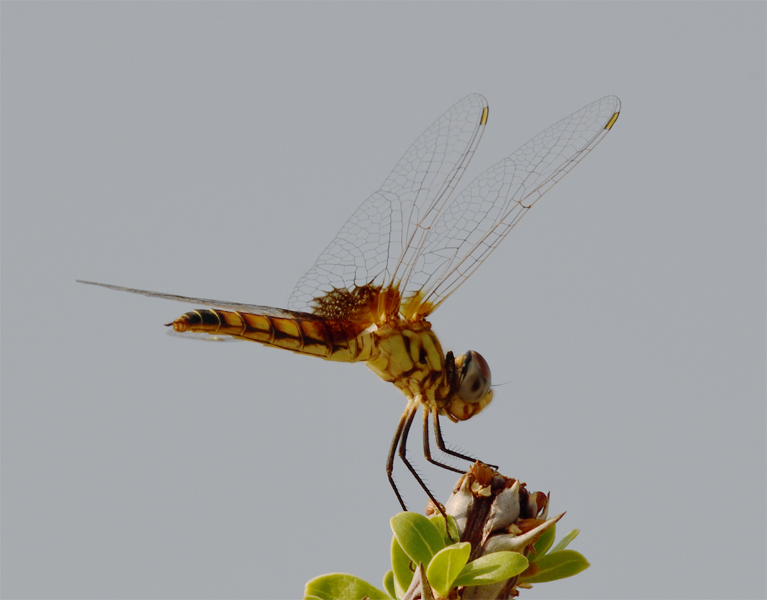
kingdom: Animalia
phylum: Arthropoda
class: Insecta
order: Odonata
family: Libellulidae
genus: Macrodiplax
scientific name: Macrodiplax balteata
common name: Marl pennant
